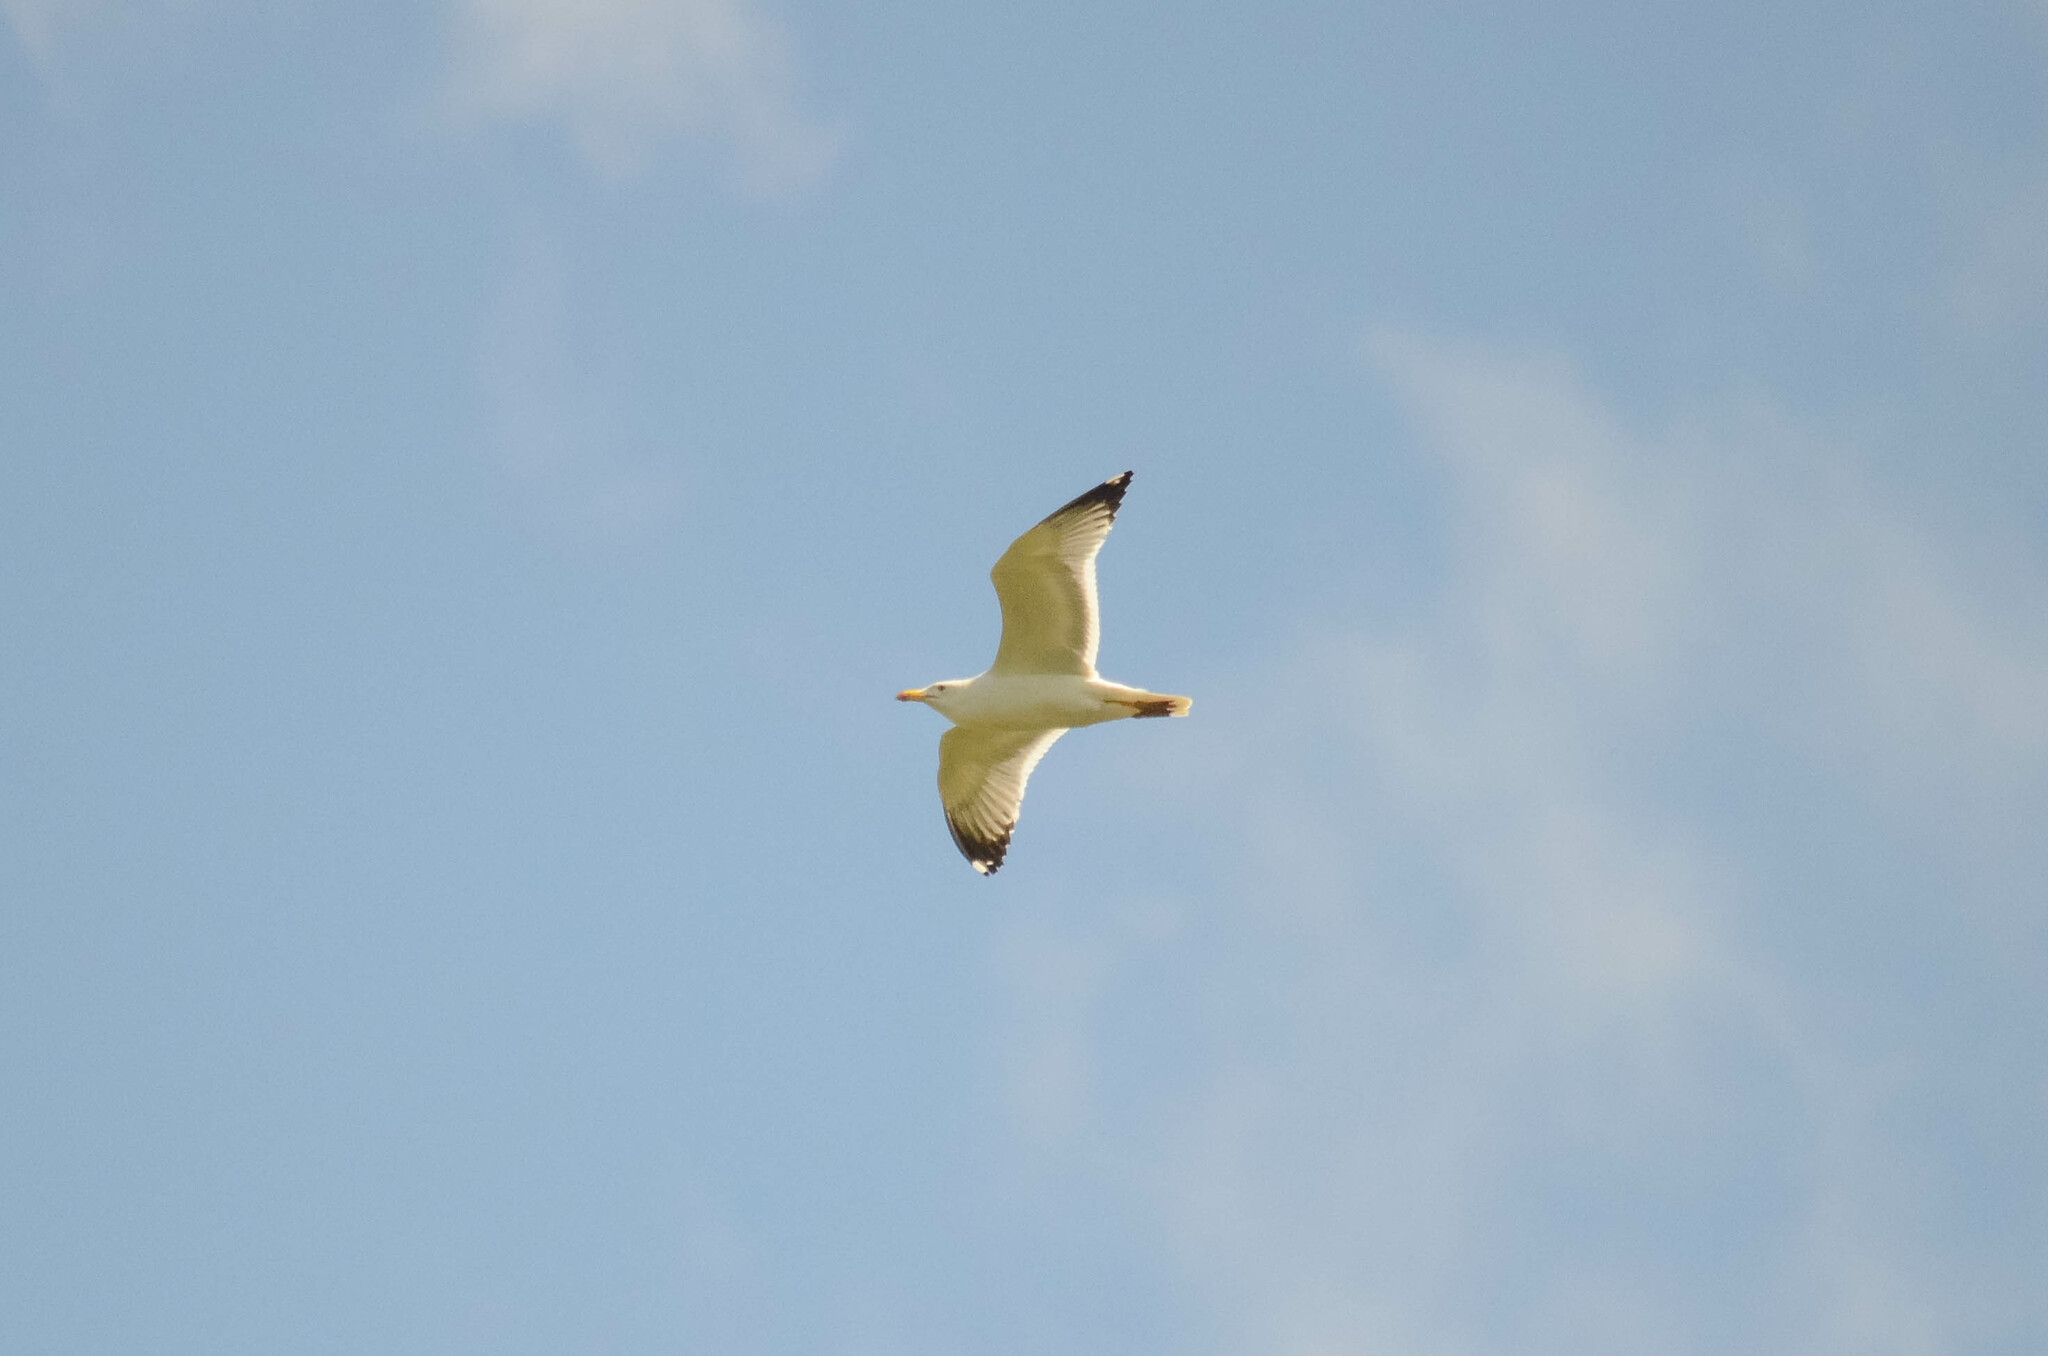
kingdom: Animalia
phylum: Chordata
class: Aves
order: Charadriiformes
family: Laridae
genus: Larus
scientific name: Larus fuscus
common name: Lesser black-backed gull
